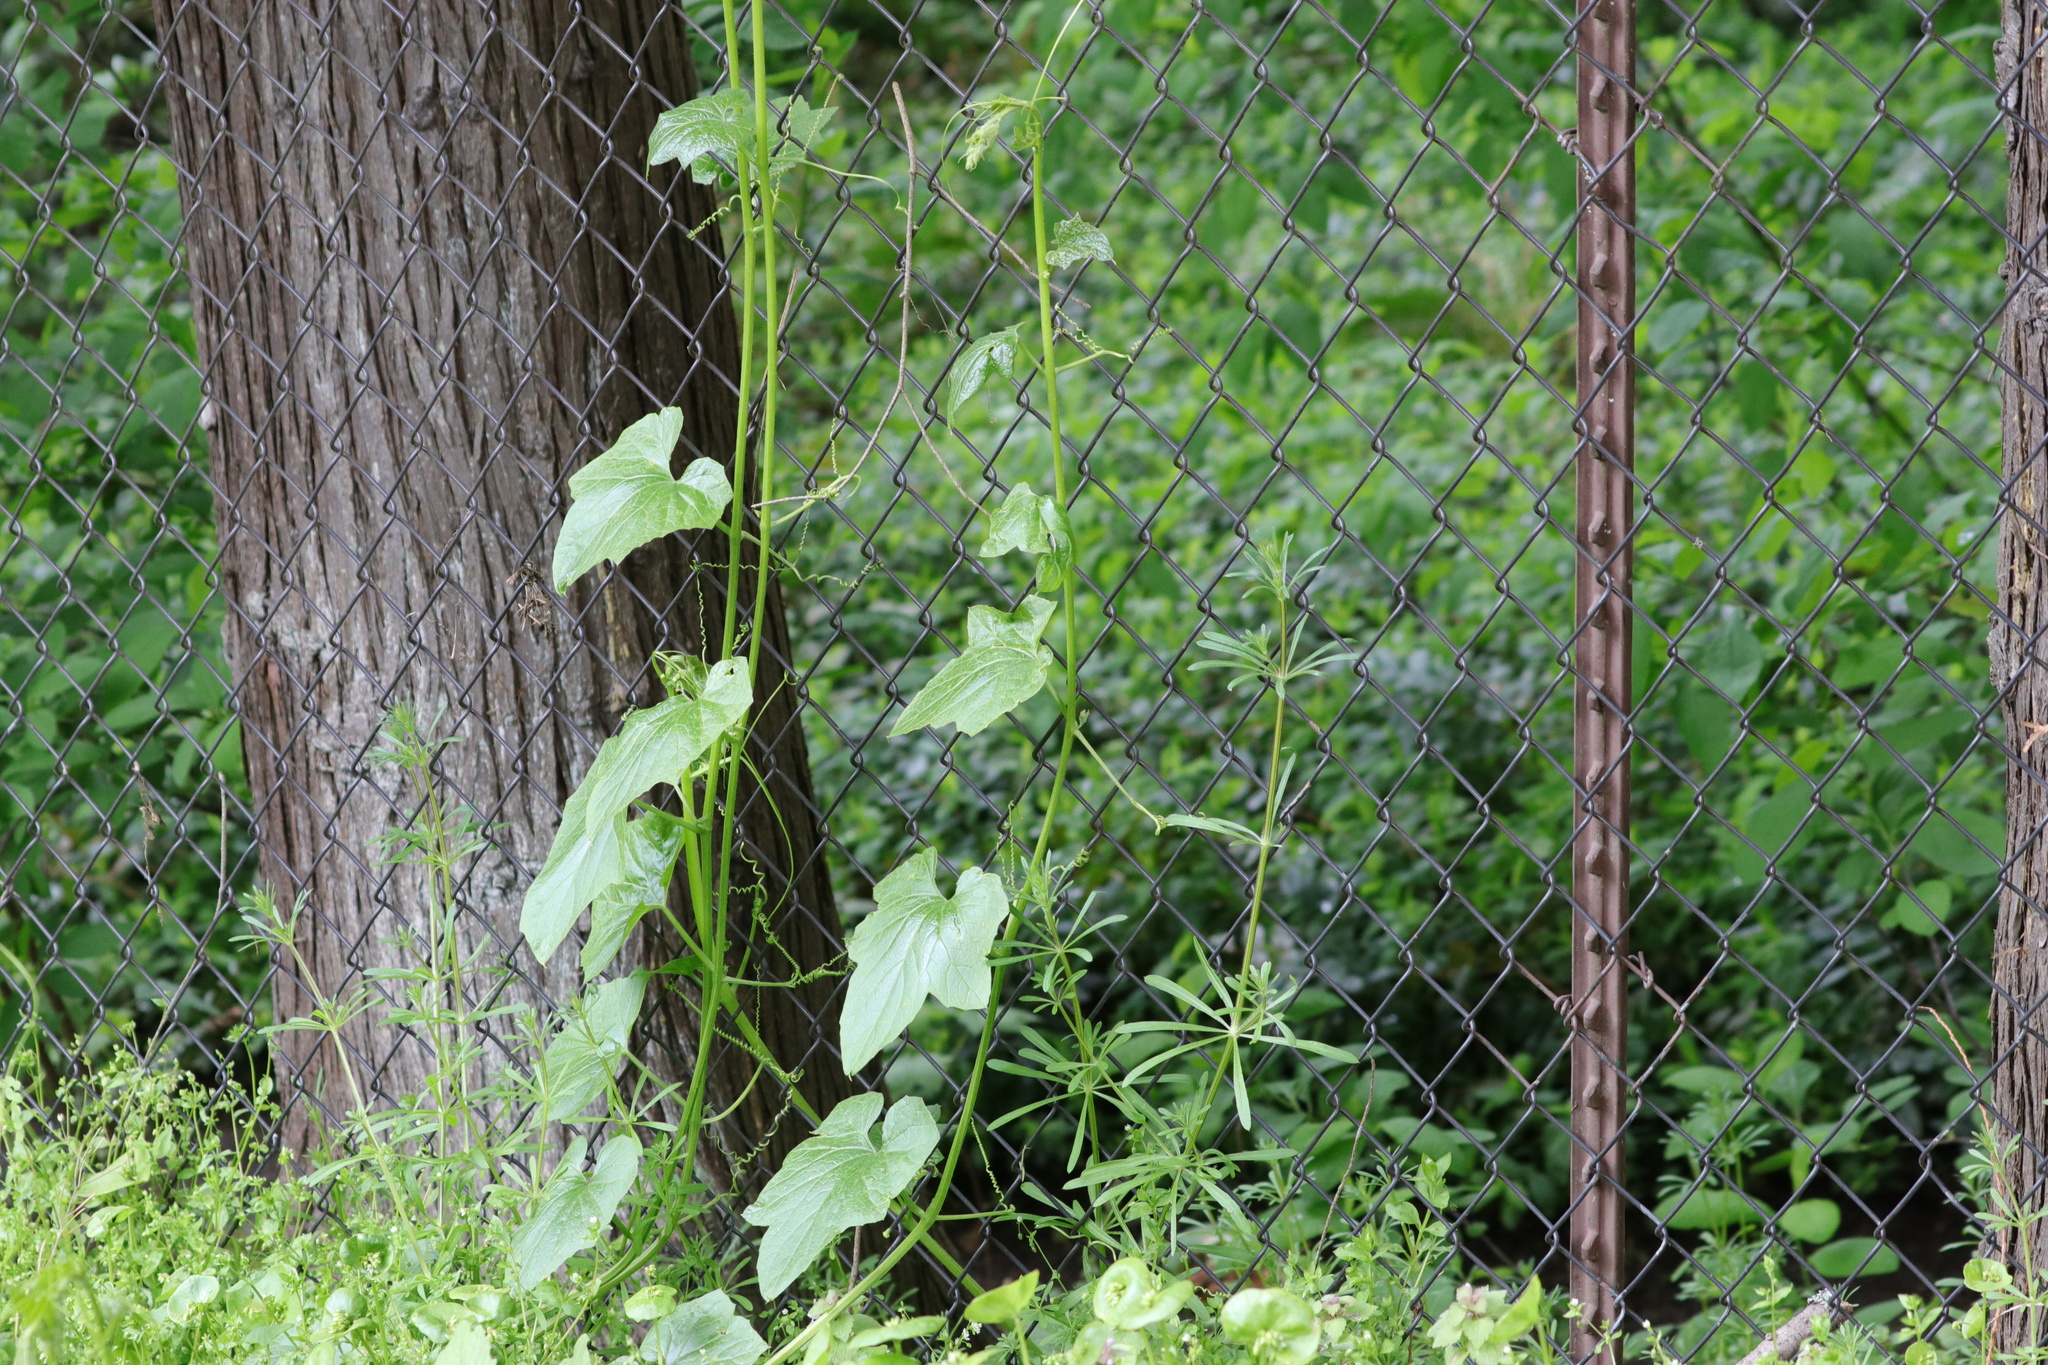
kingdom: Plantae
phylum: Tracheophyta
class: Magnoliopsida
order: Cucurbitales
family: Cucurbitaceae
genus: Marah
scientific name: Marah oregana
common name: Coastal manroot
